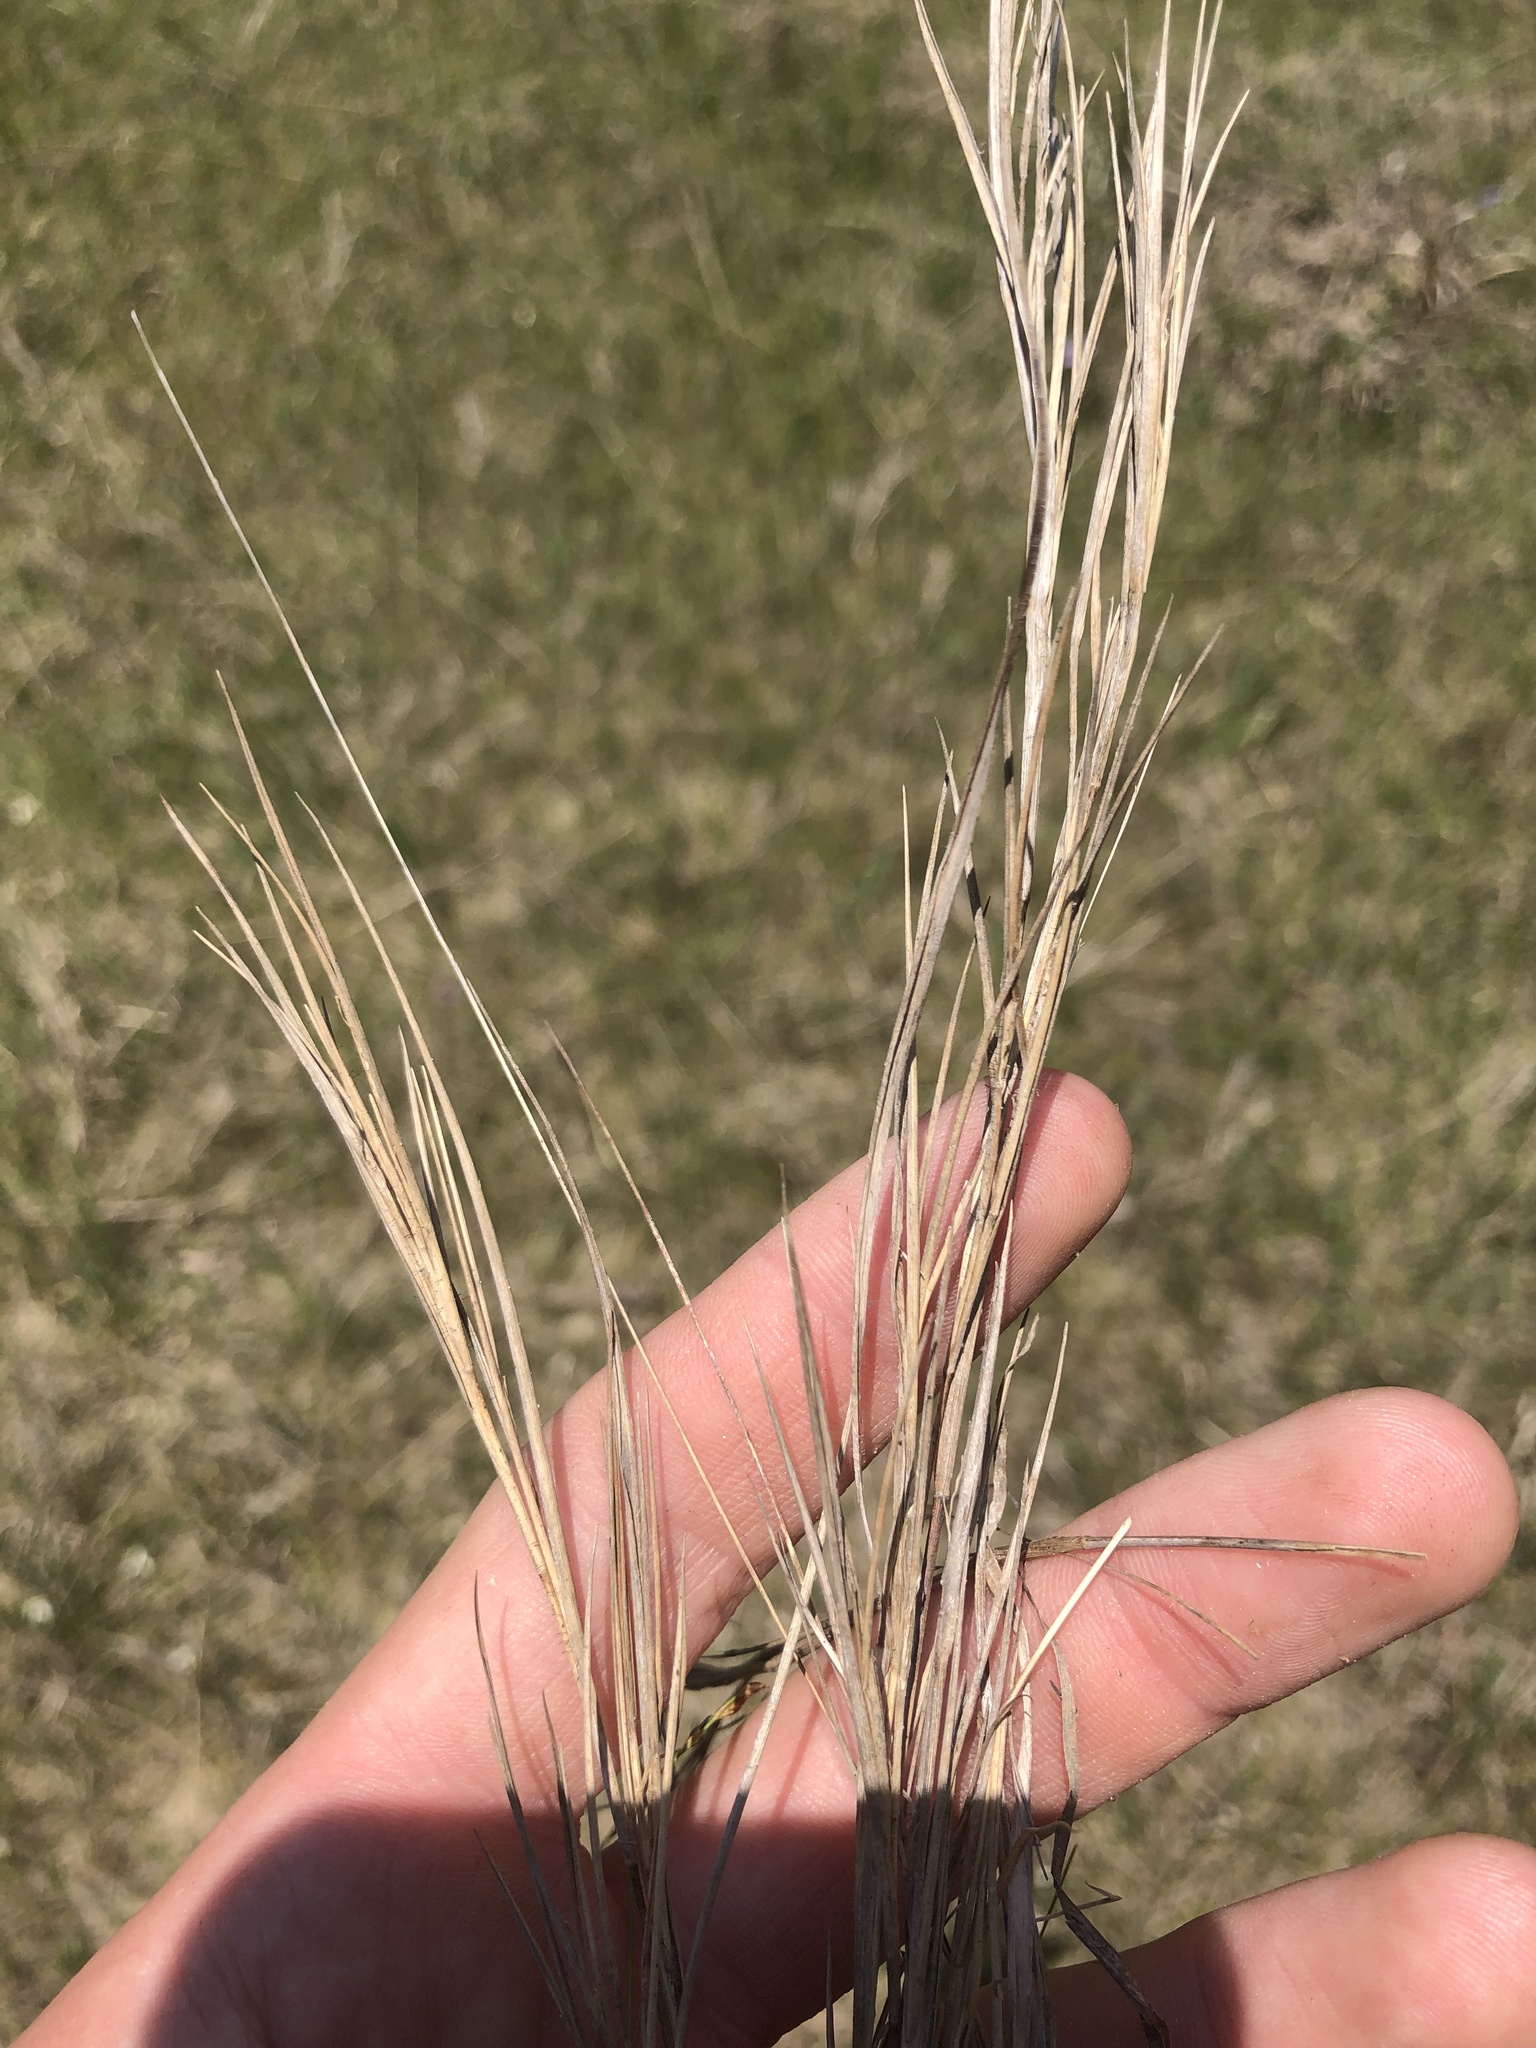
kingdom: Plantae
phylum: Tracheophyta
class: Liliopsida
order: Poales
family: Poaceae
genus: Dichanthelium
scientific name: Dichanthelium neuranthum
